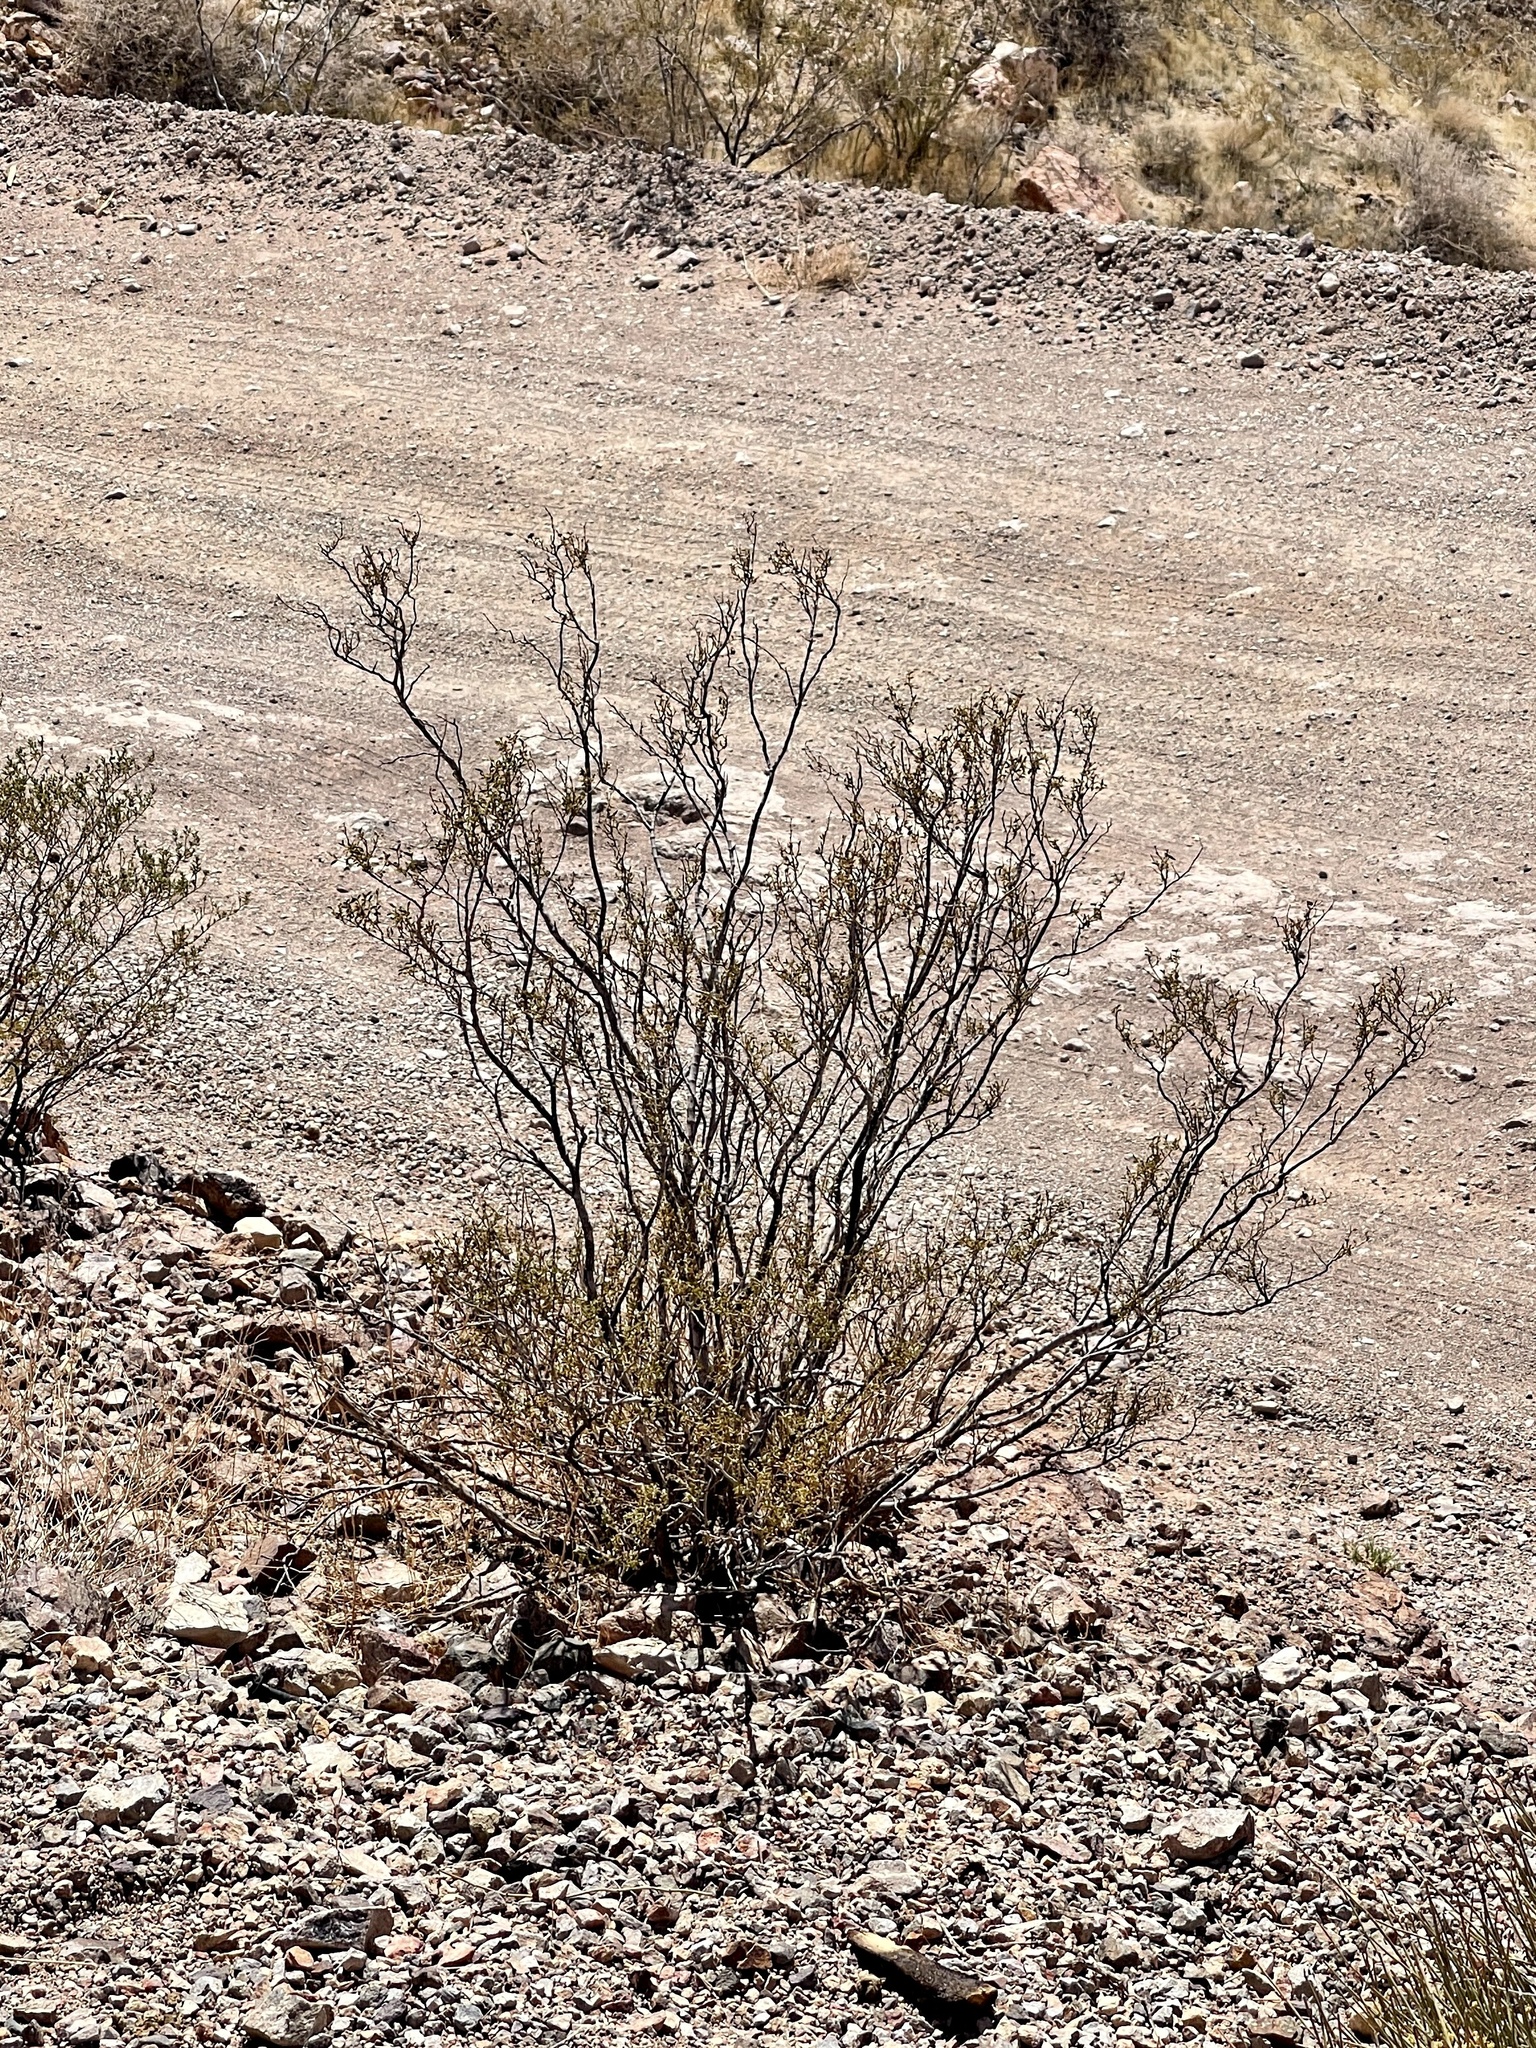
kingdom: Plantae
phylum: Tracheophyta
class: Magnoliopsida
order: Zygophyllales
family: Zygophyllaceae
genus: Larrea
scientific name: Larrea tridentata
